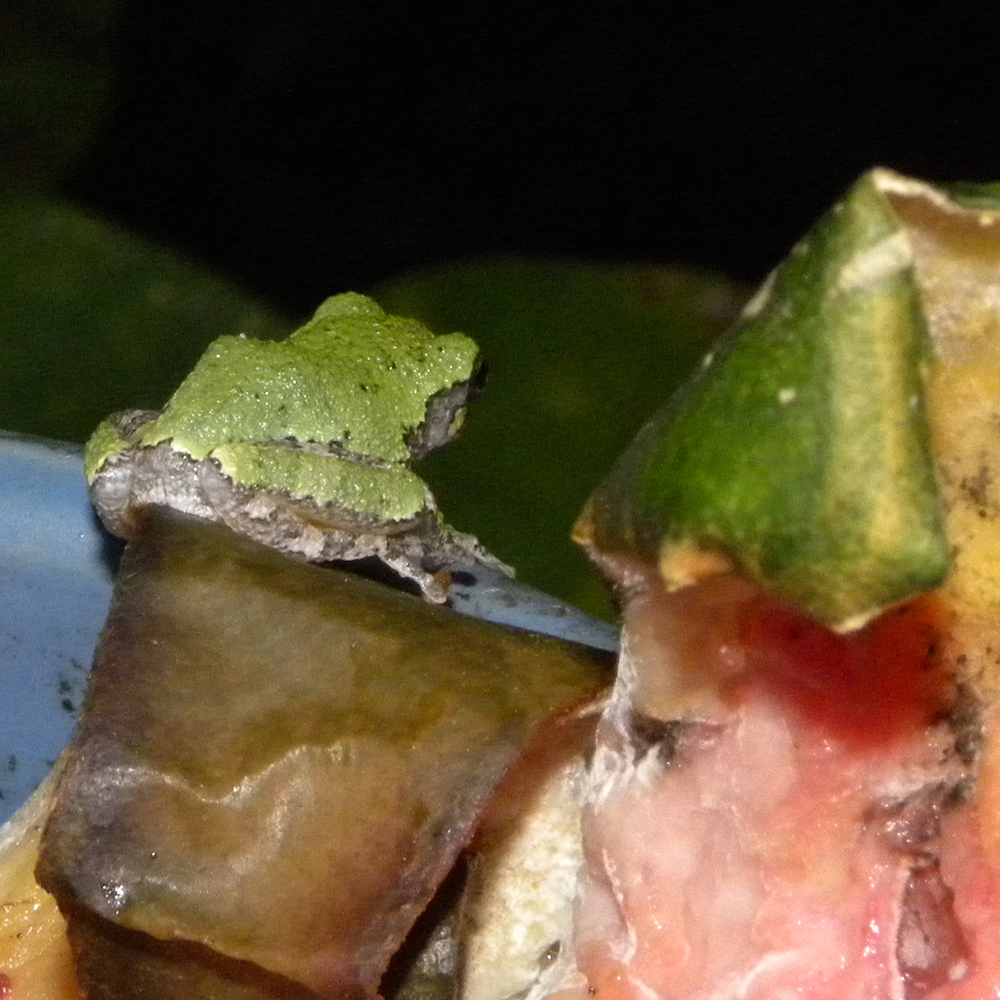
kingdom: Animalia
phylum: Chordata
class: Amphibia
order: Anura
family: Hylidae
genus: Hyla
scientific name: Hyla
